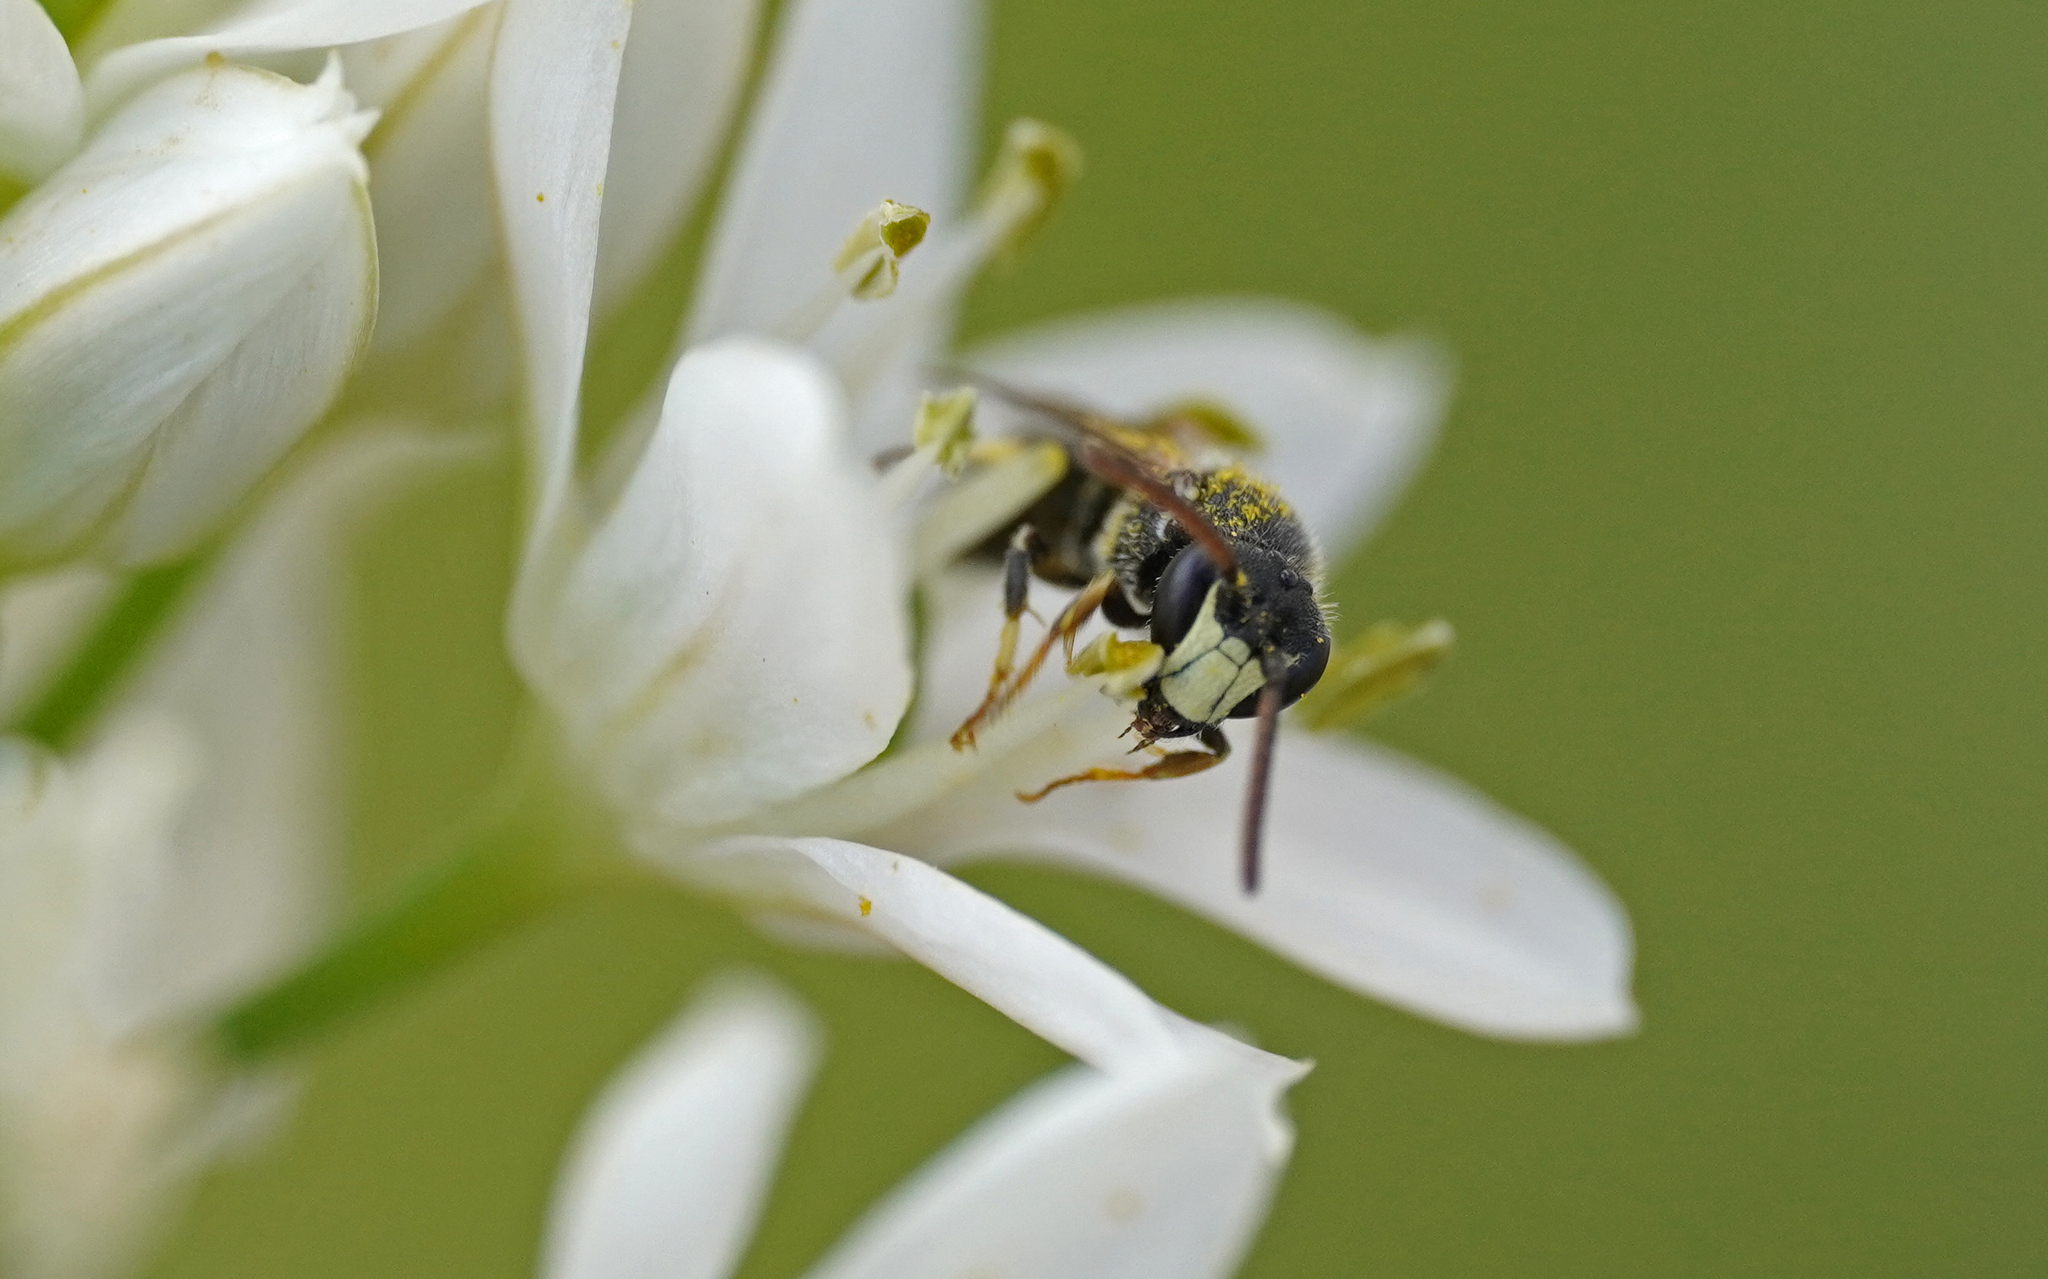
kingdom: Animalia
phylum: Arthropoda
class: Insecta
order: Hymenoptera
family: Colletidae
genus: Hylaeus
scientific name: Hylaeus hyalinatus
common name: Hyaline masked bee
